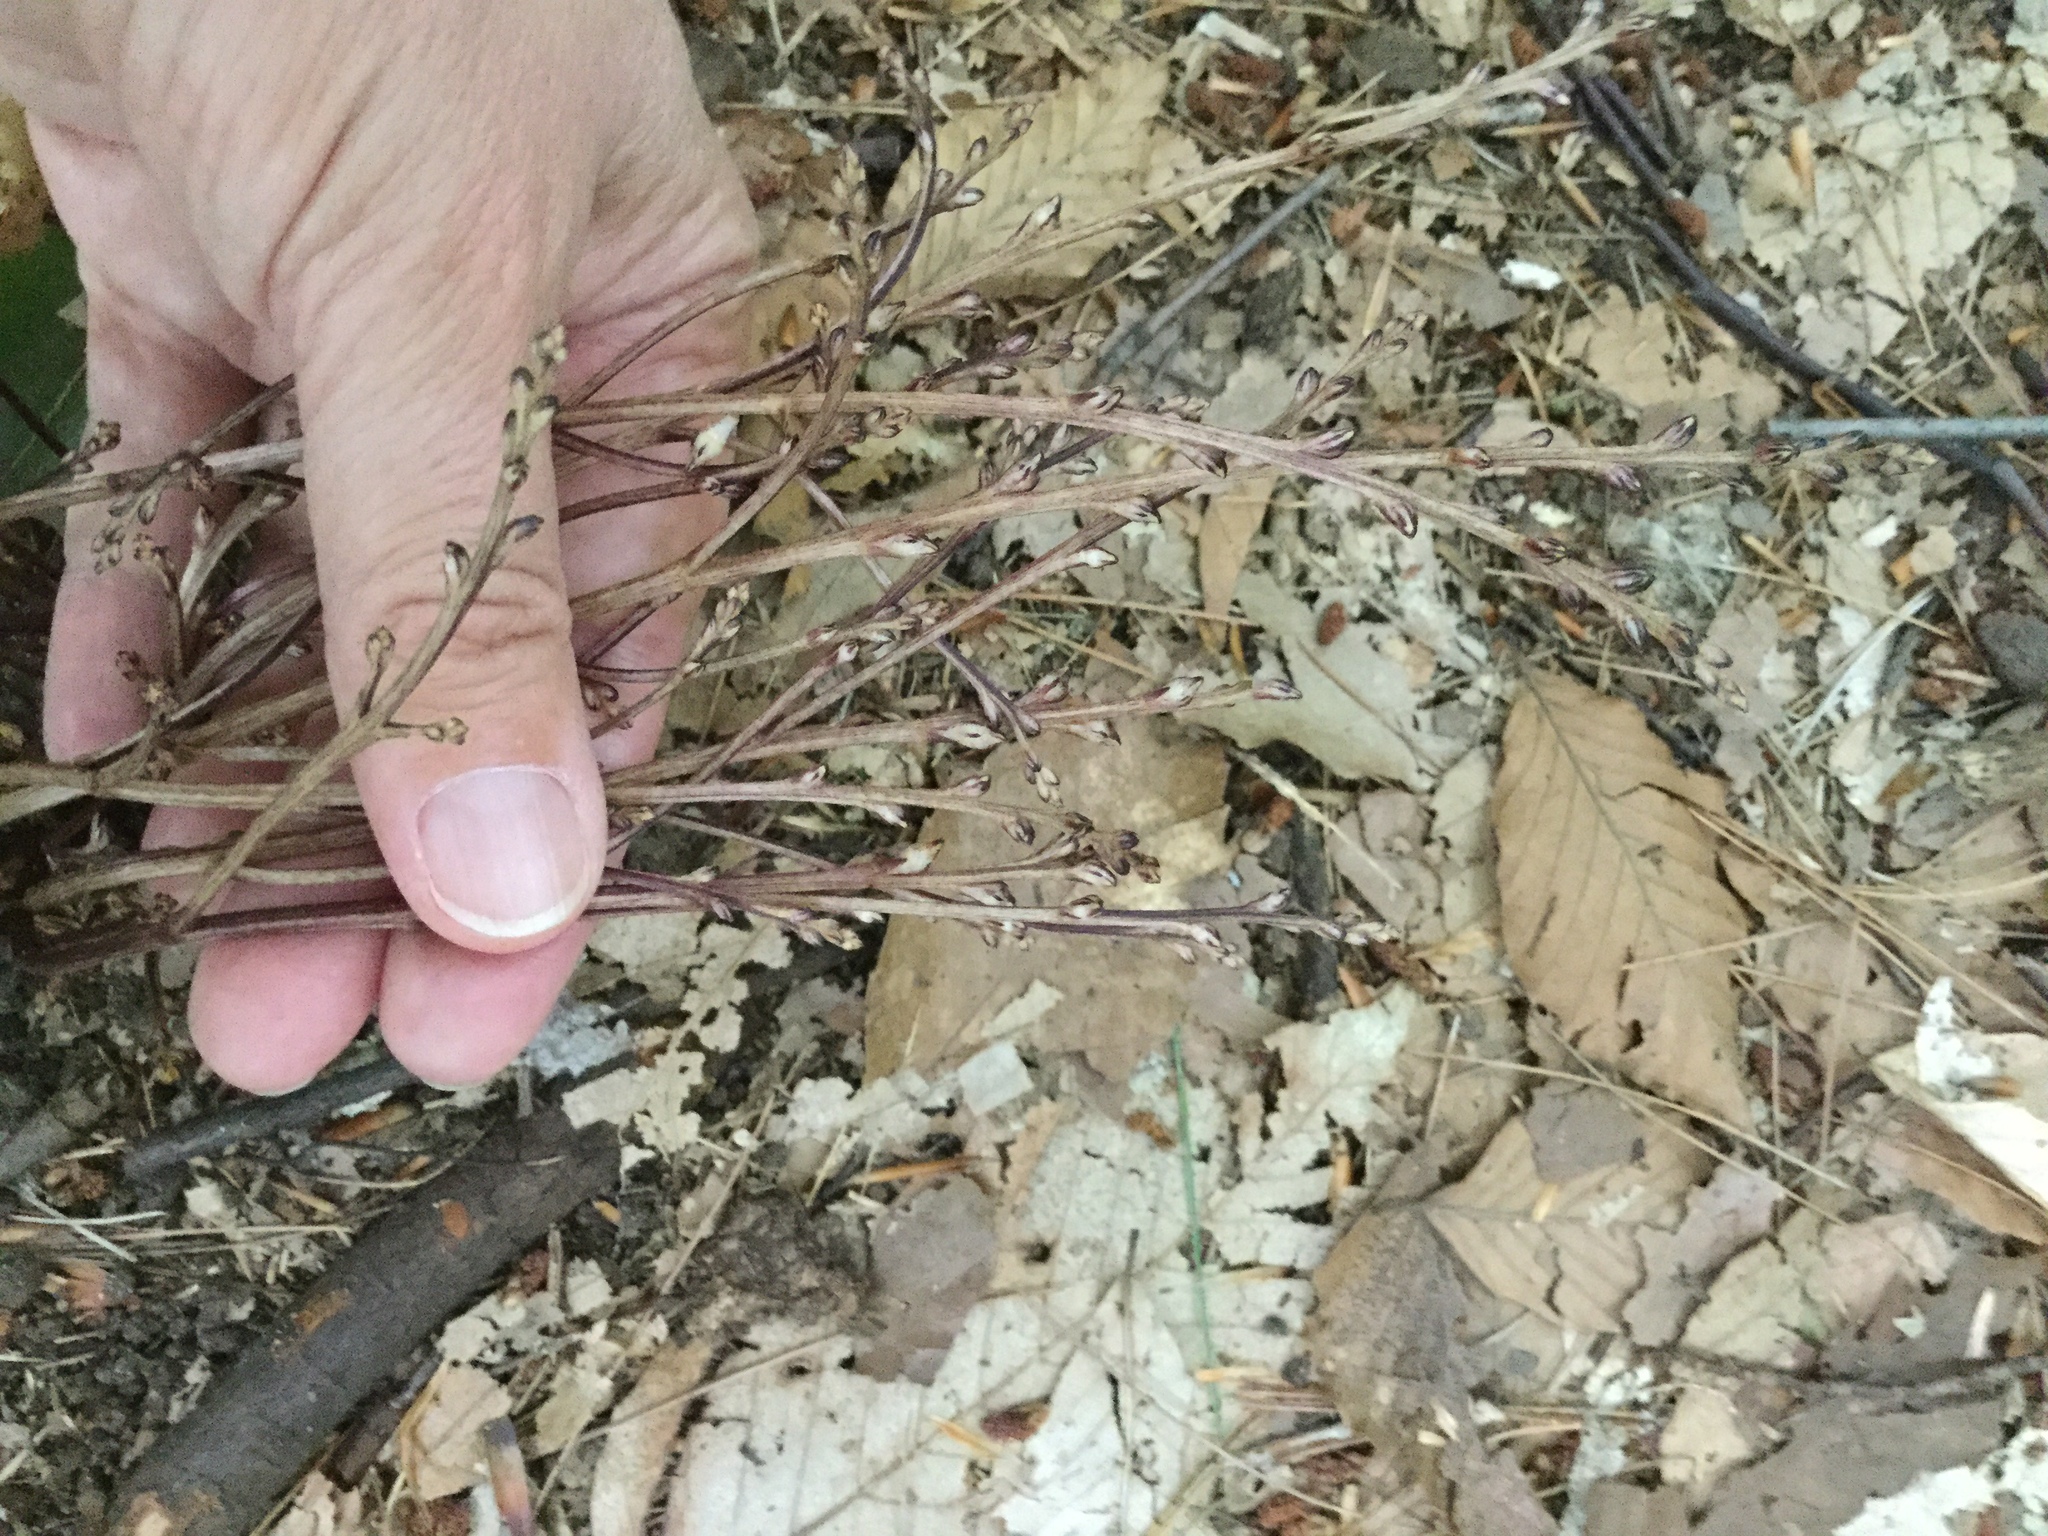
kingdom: Plantae
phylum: Tracheophyta
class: Magnoliopsida
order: Lamiales
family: Orobanchaceae
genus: Epifagus
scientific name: Epifagus virginiana
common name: Beechdrops
